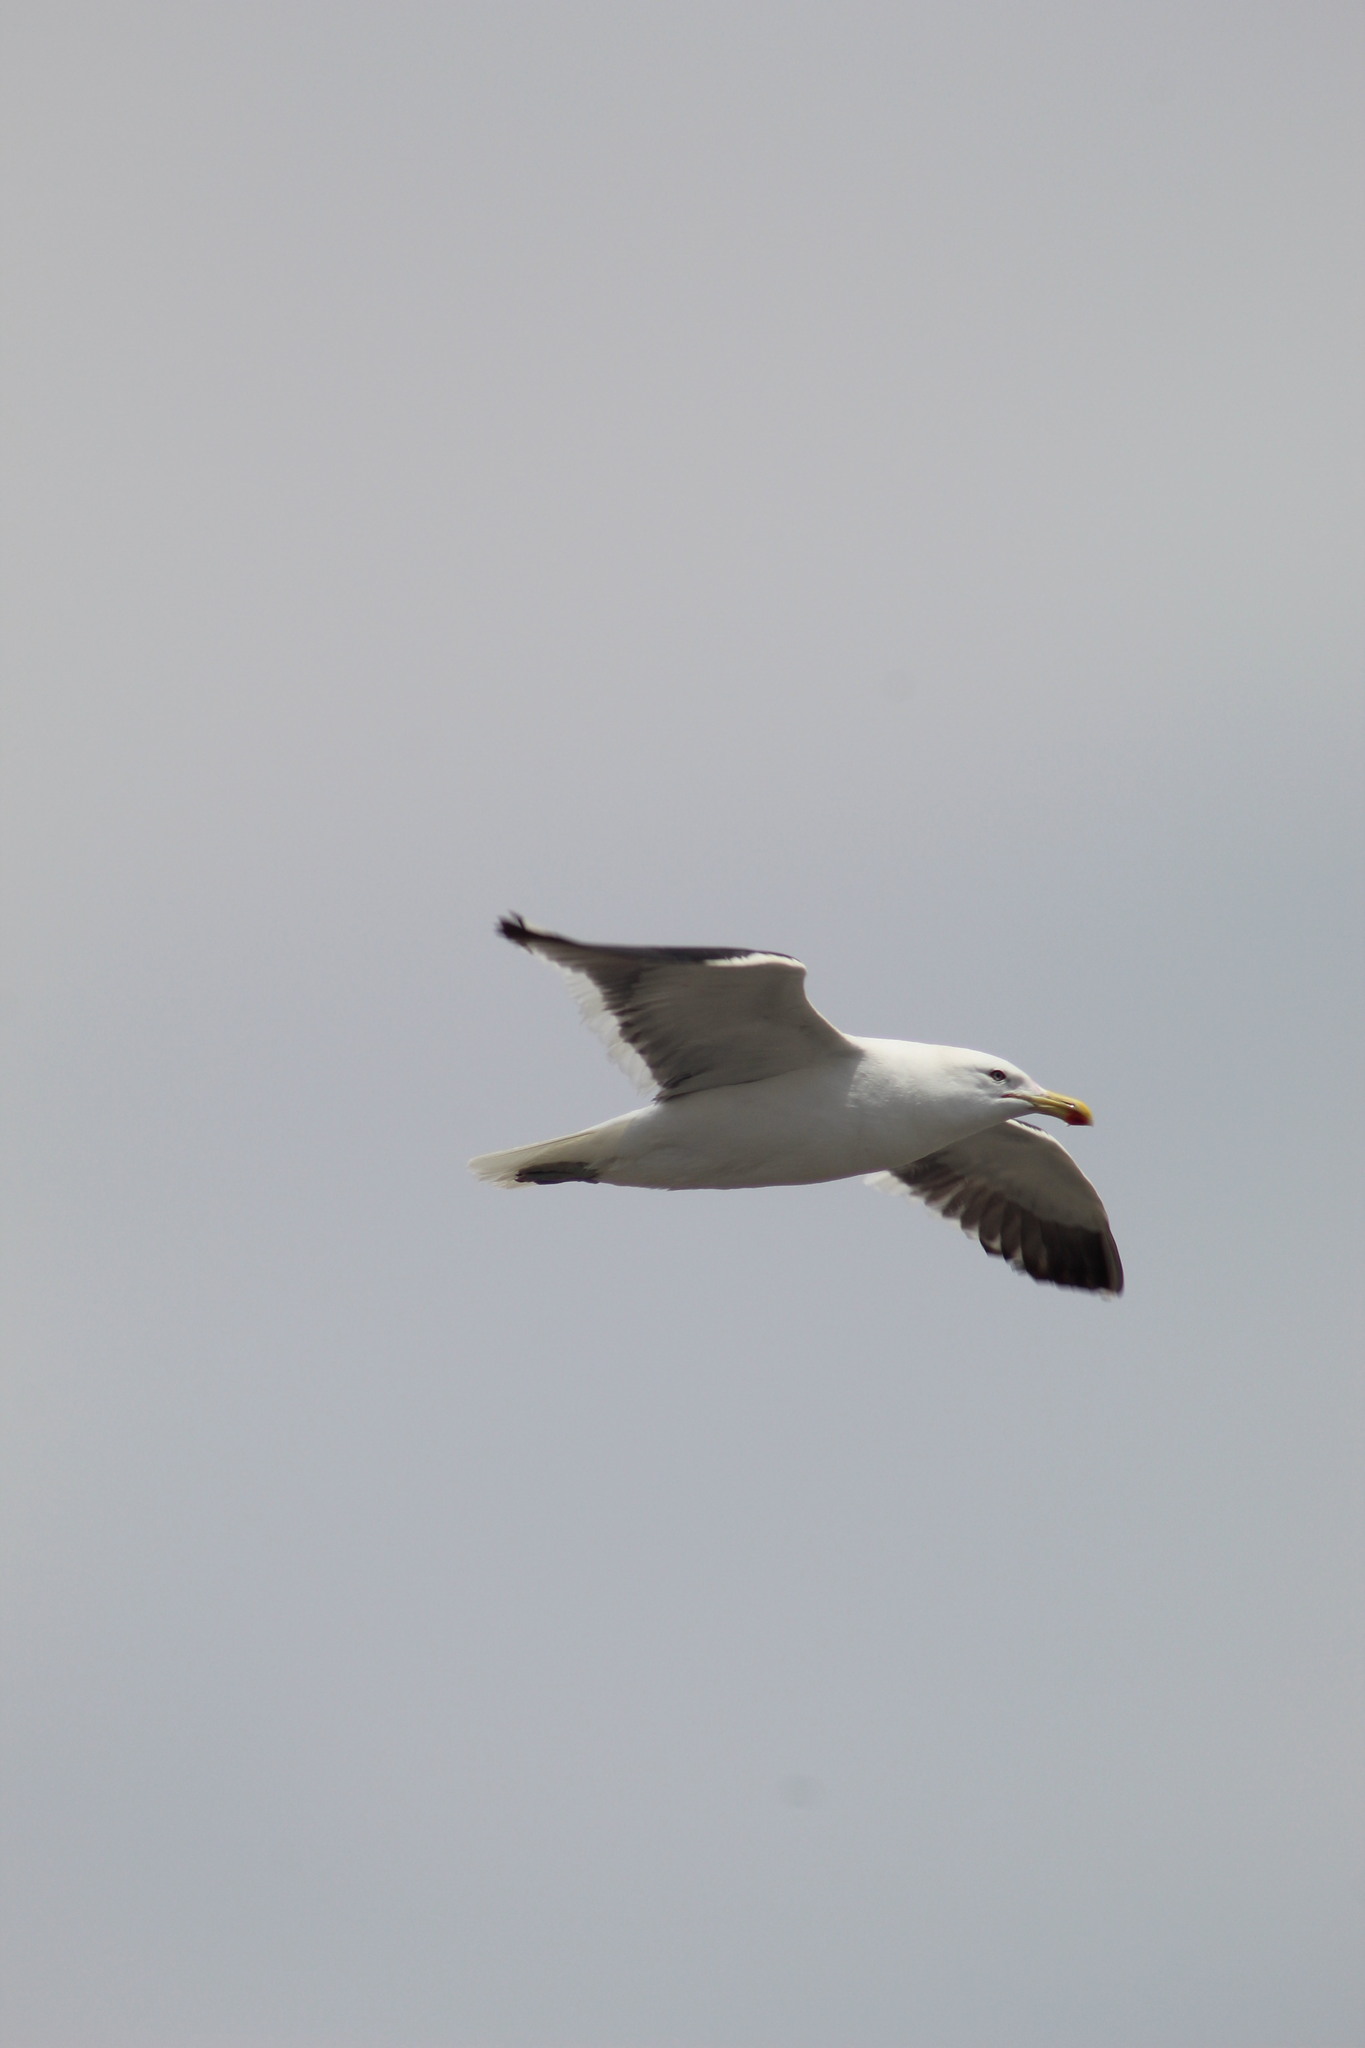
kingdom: Animalia
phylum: Chordata
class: Aves
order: Charadriiformes
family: Laridae
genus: Larus
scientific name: Larus dominicanus
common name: Kelp gull
